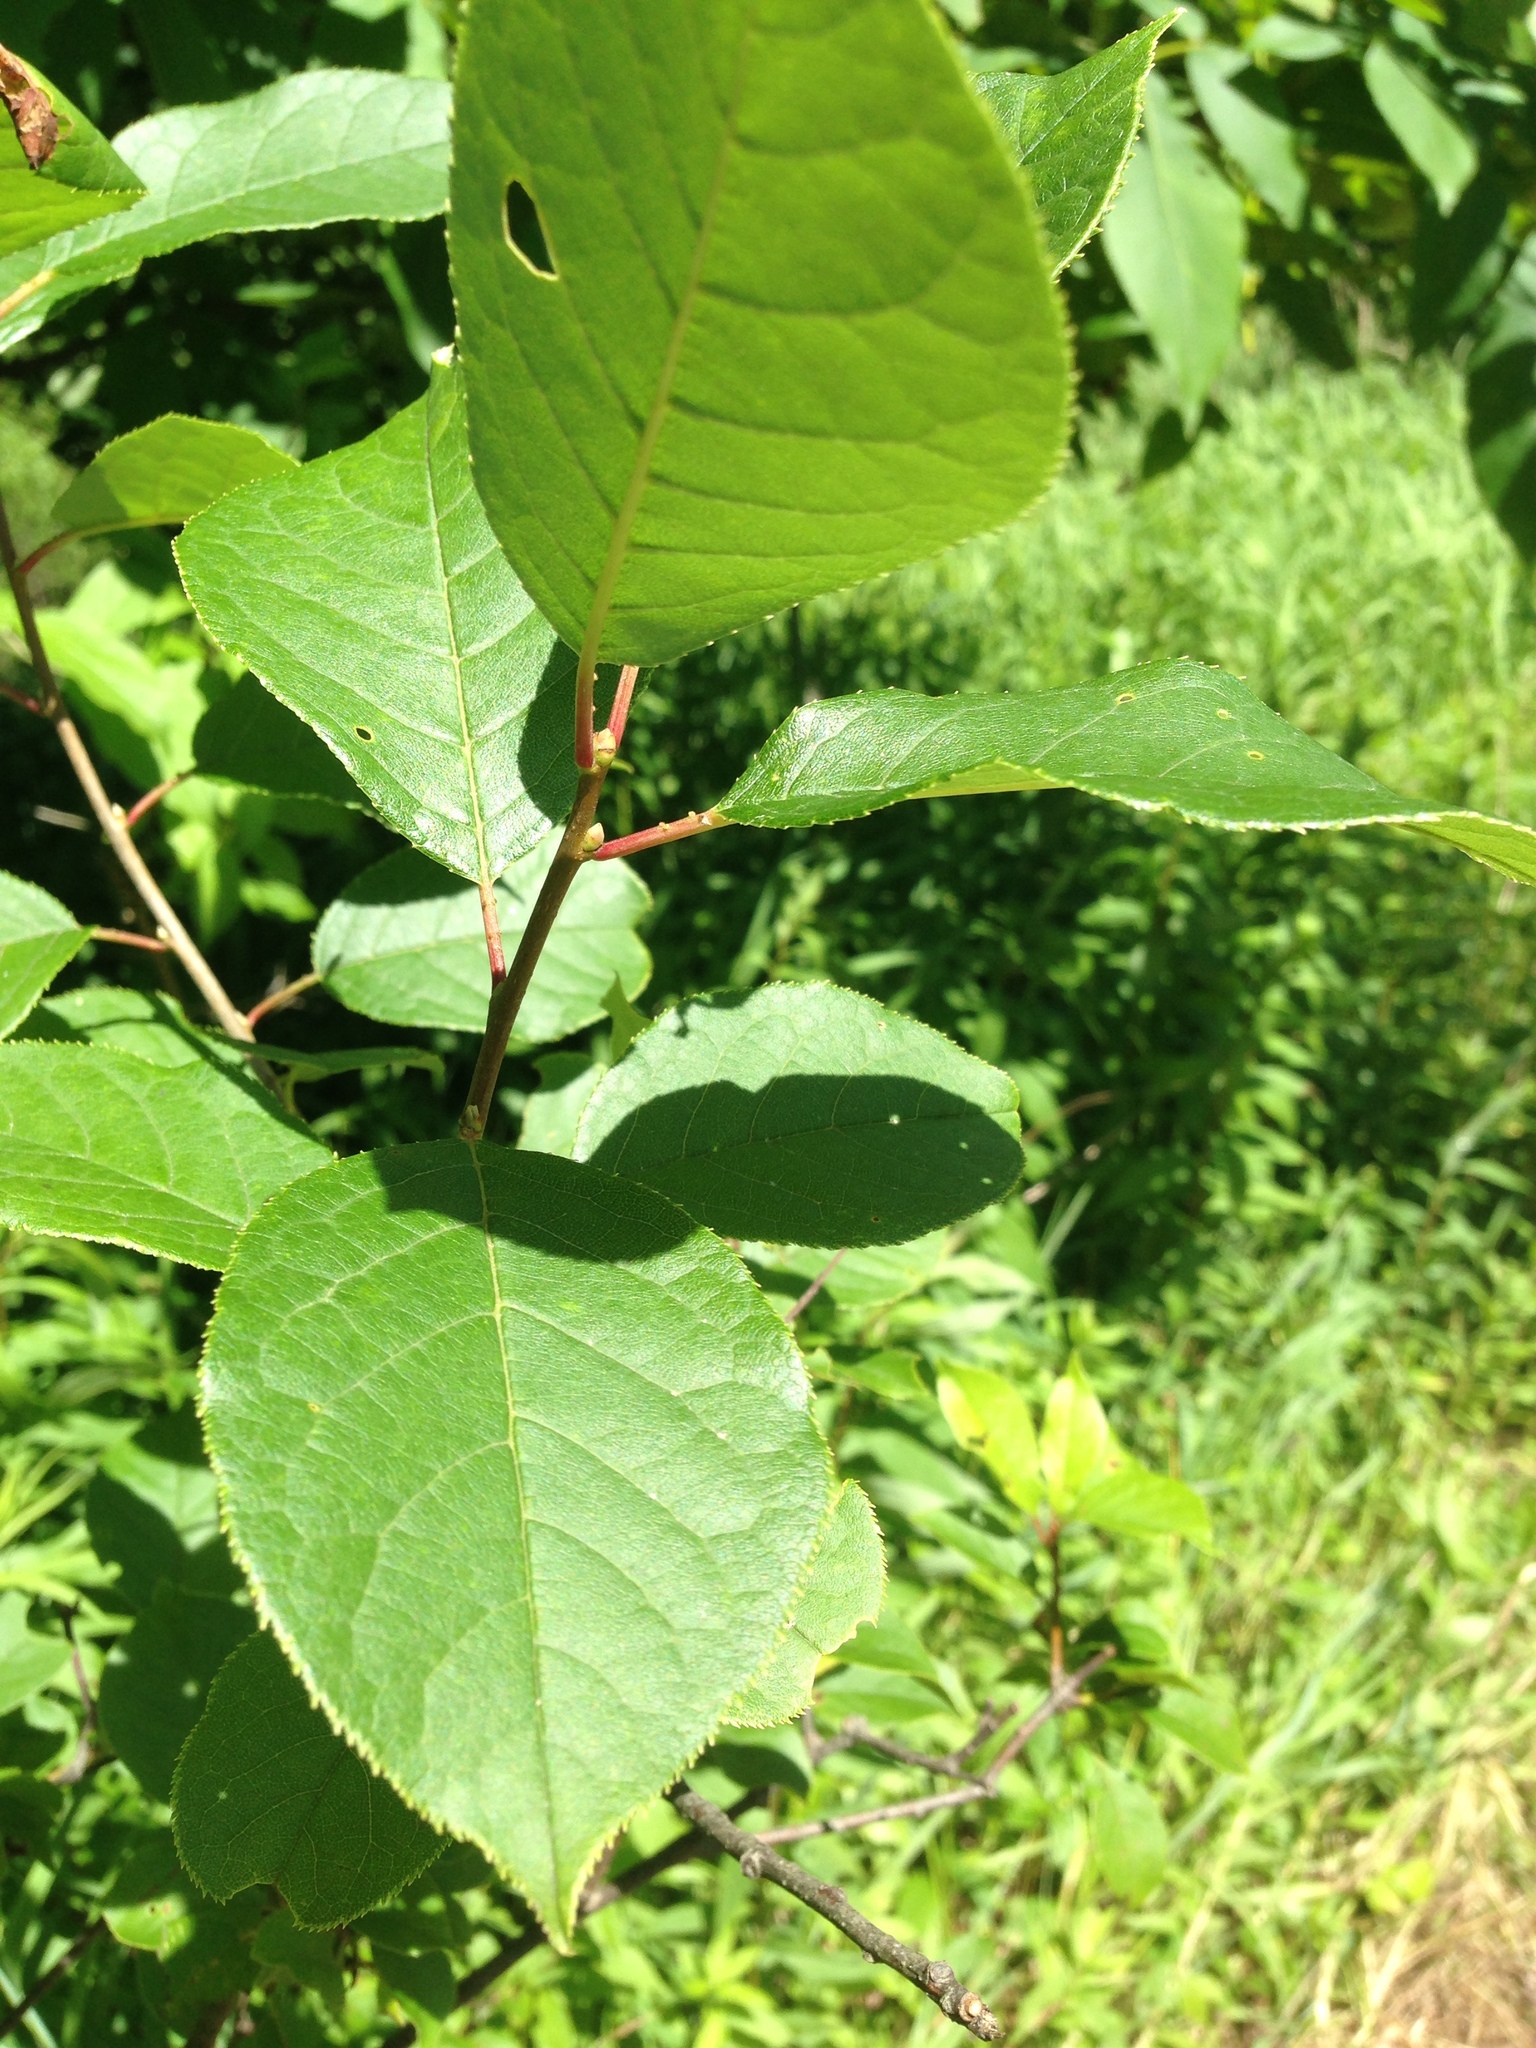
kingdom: Plantae
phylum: Tracheophyta
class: Magnoliopsida
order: Rosales
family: Rosaceae
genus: Prunus
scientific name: Prunus virginiana
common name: Chokecherry
